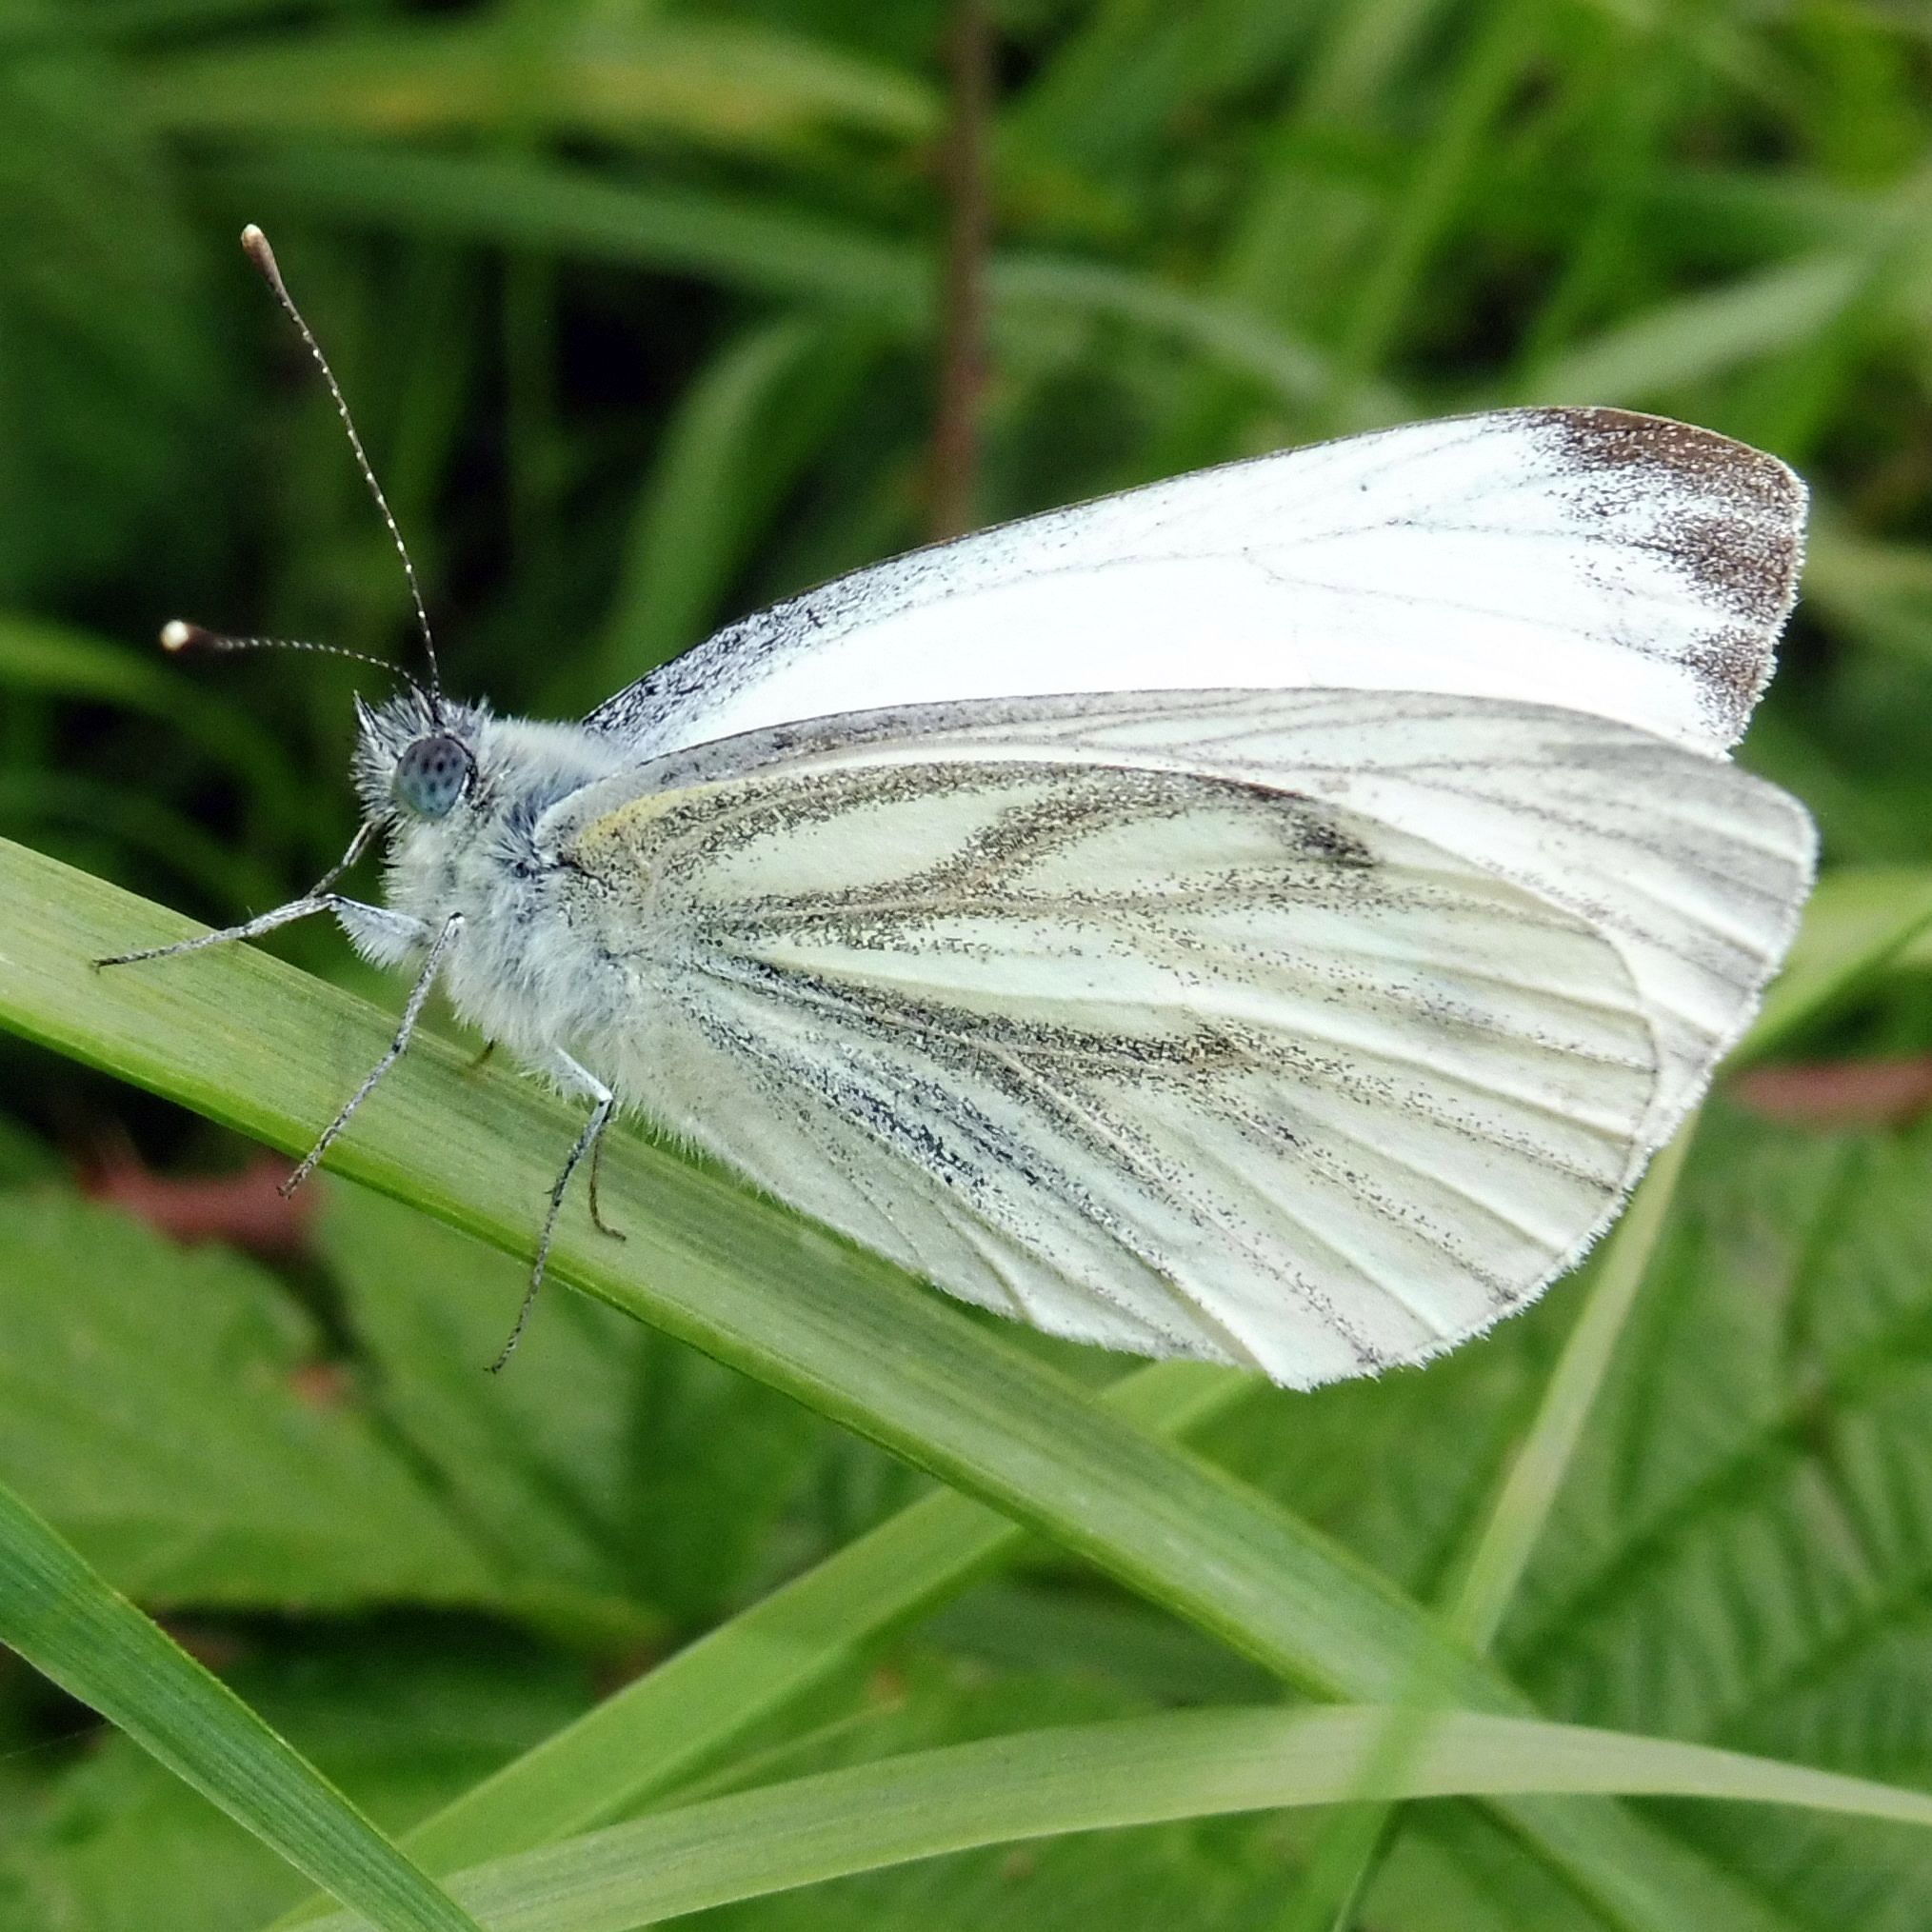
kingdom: Animalia
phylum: Arthropoda
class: Insecta
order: Lepidoptera
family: Pieridae
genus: Pieris
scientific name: Pieris napi
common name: Green-veined white
